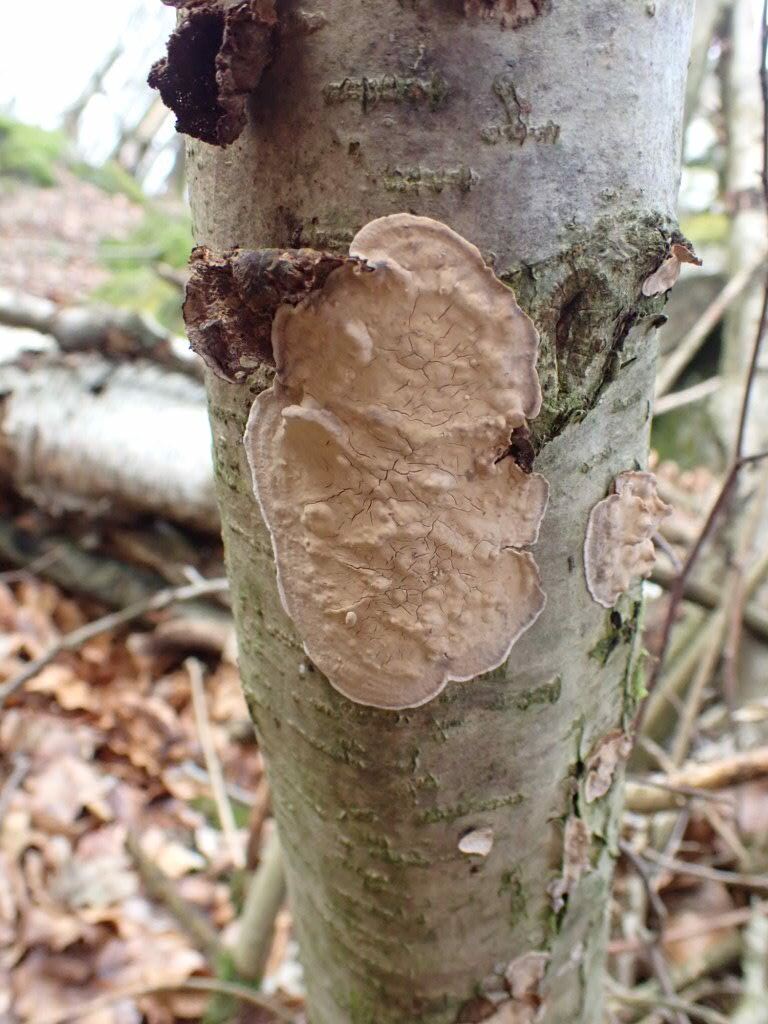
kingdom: Fungi
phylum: Basidiomycota
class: Agaricomycetes
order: Russulales
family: Stereaceae
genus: Stereum
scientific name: Stereum rugosum
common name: Bleeding broadleaf crust
